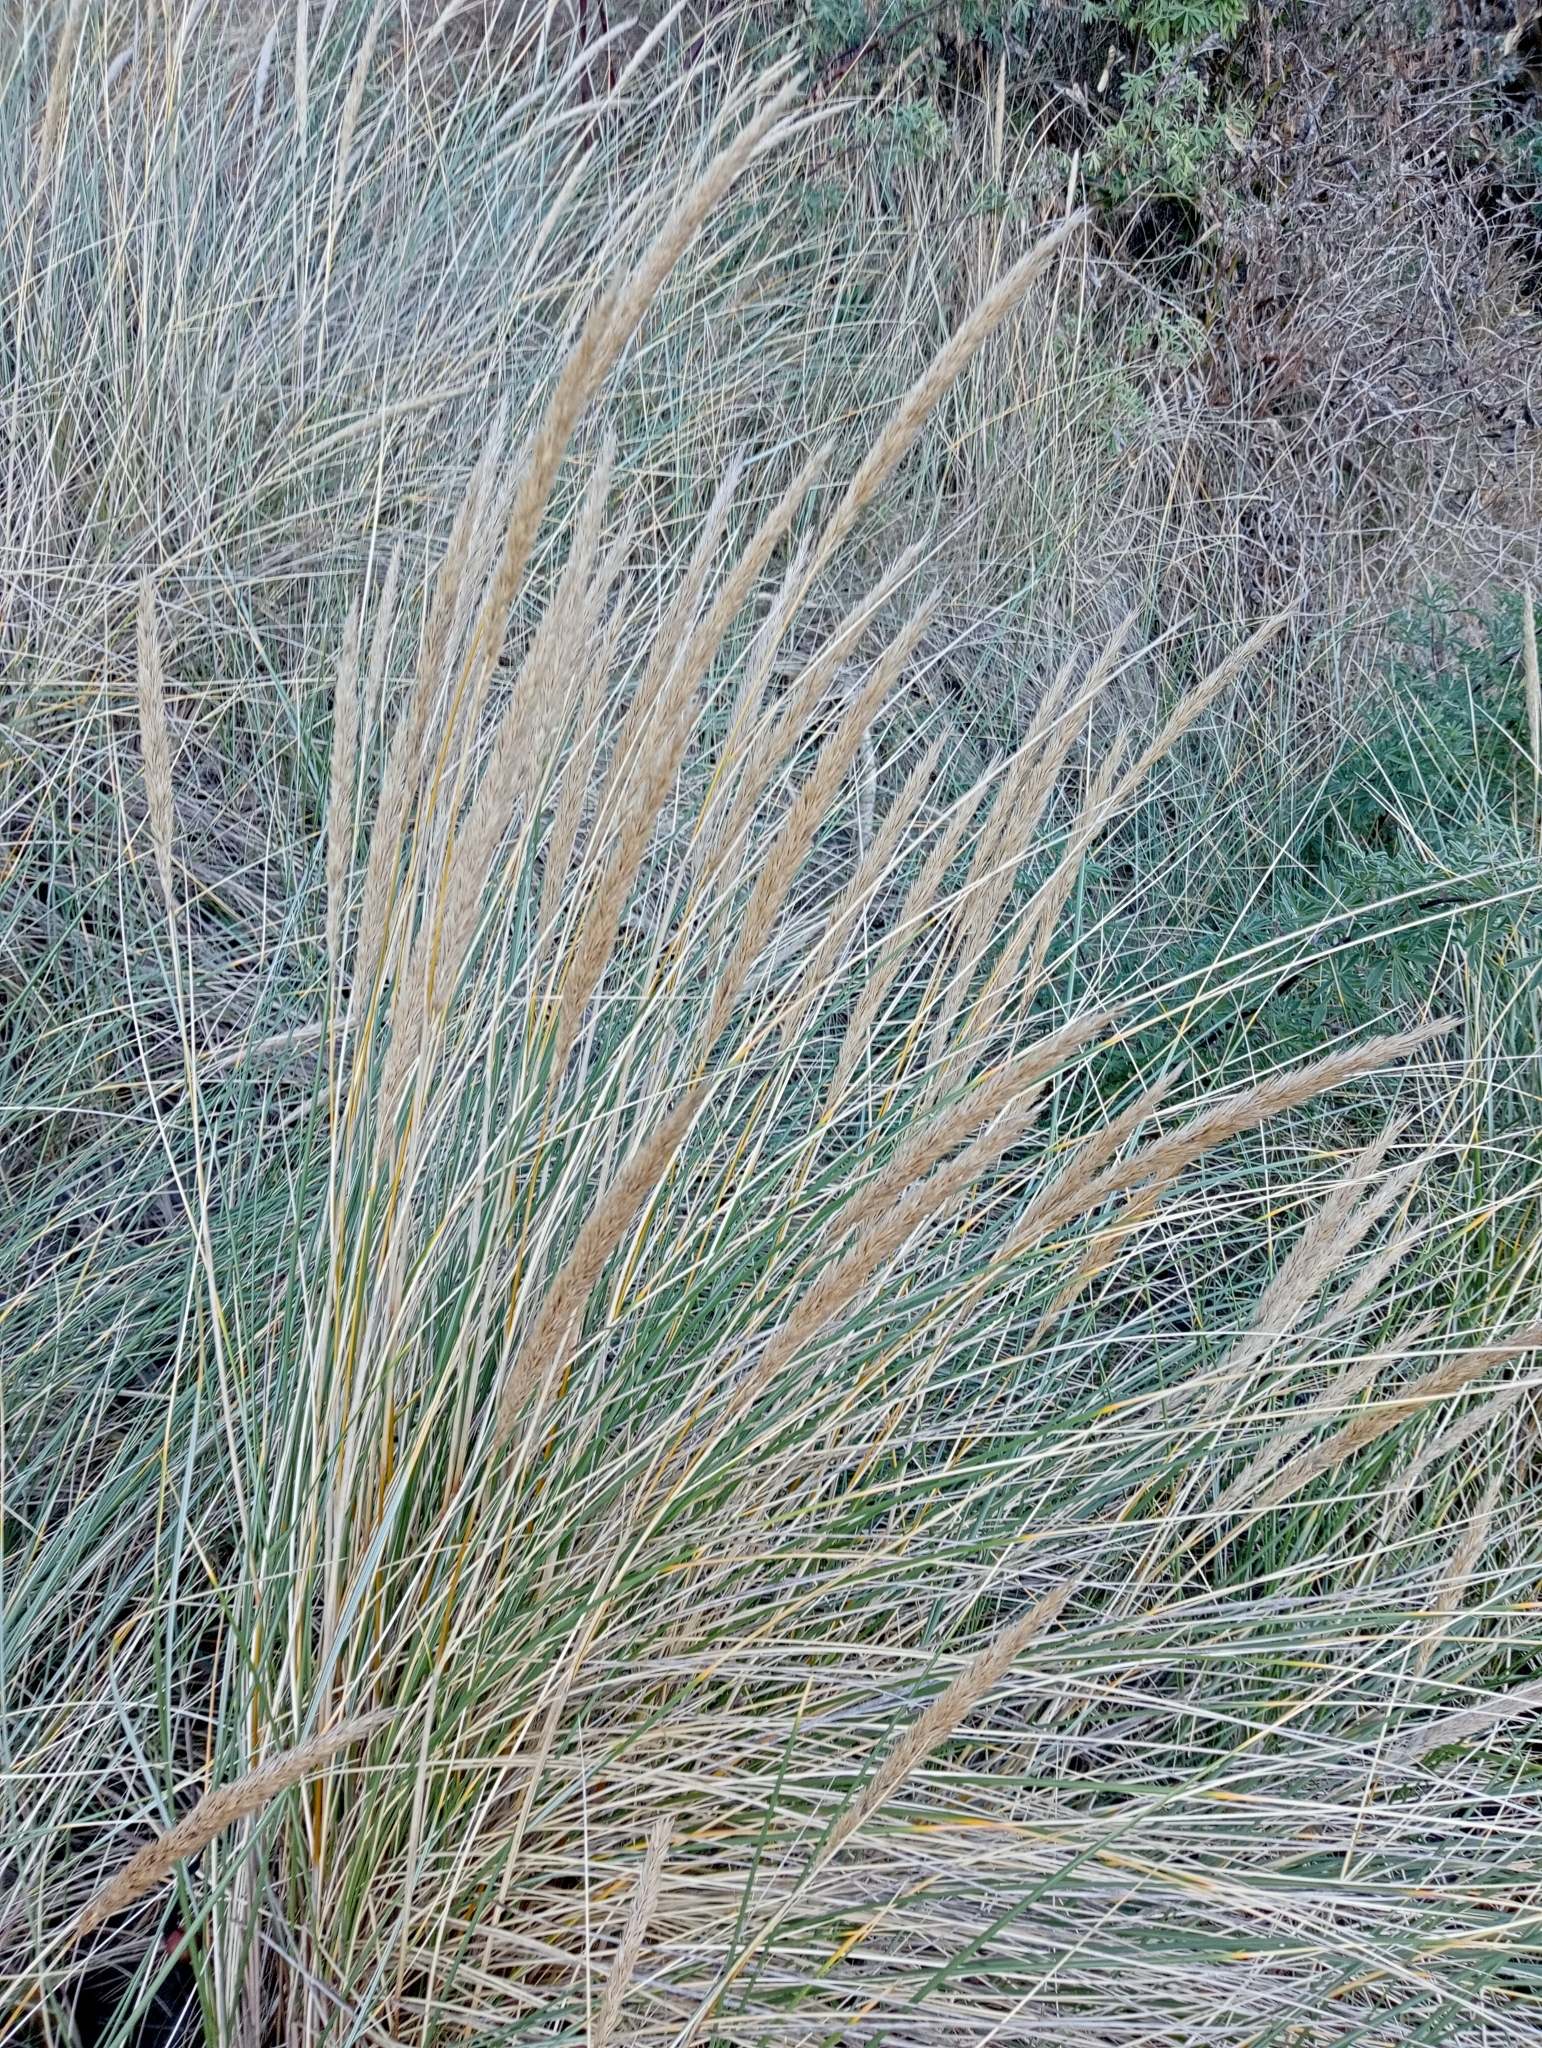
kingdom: Plantae
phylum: Tracheophyta
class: Liliopsida
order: Poales
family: Poaceae
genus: Calamagrostis
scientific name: Calamagrostis arenaria
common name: European beachgrass
